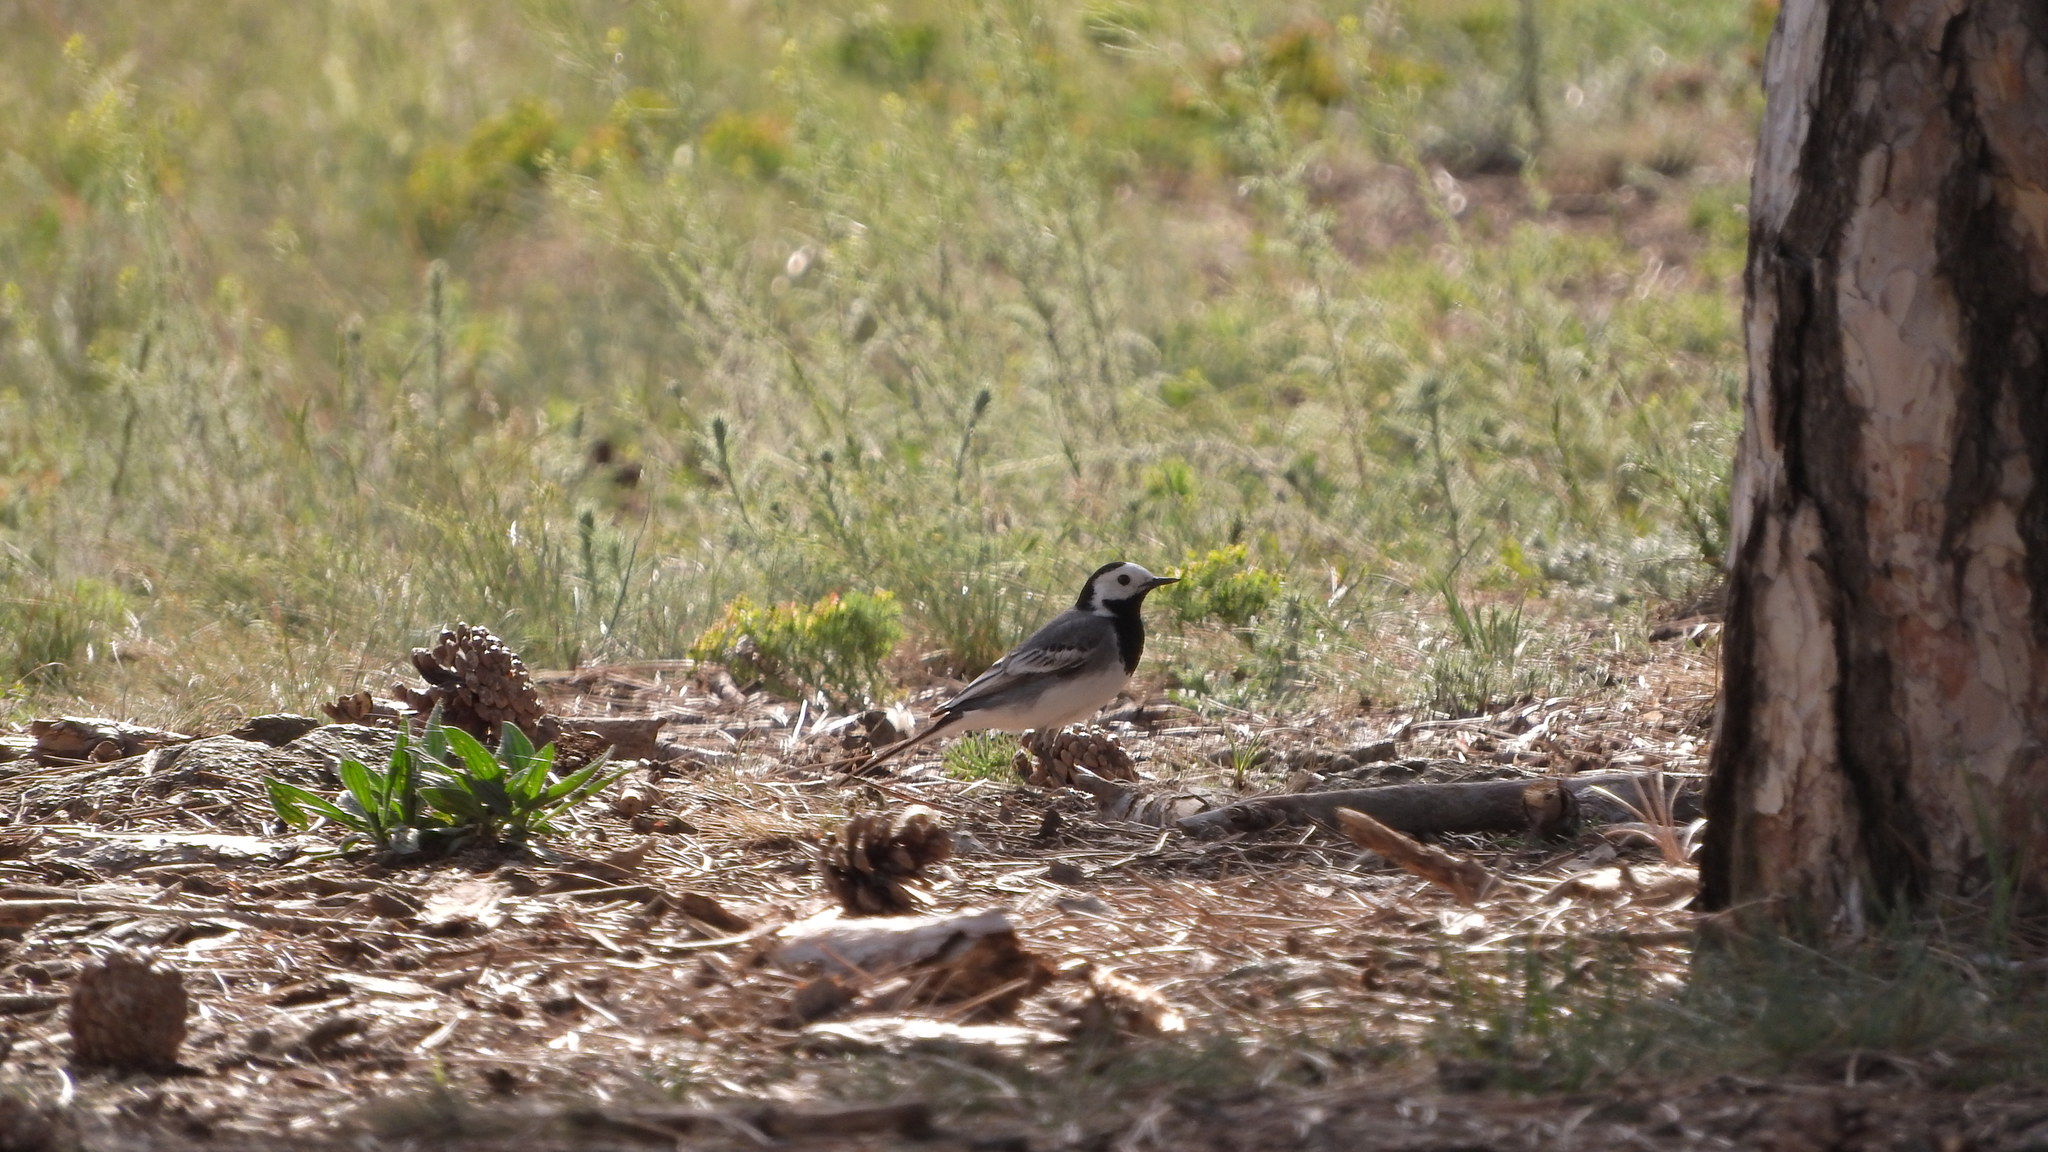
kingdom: Animalia
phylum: Chordata
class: Aves
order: Passeriformes
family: Motacillidae
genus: Motacilla
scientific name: Motacilla alba
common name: White wagtail
